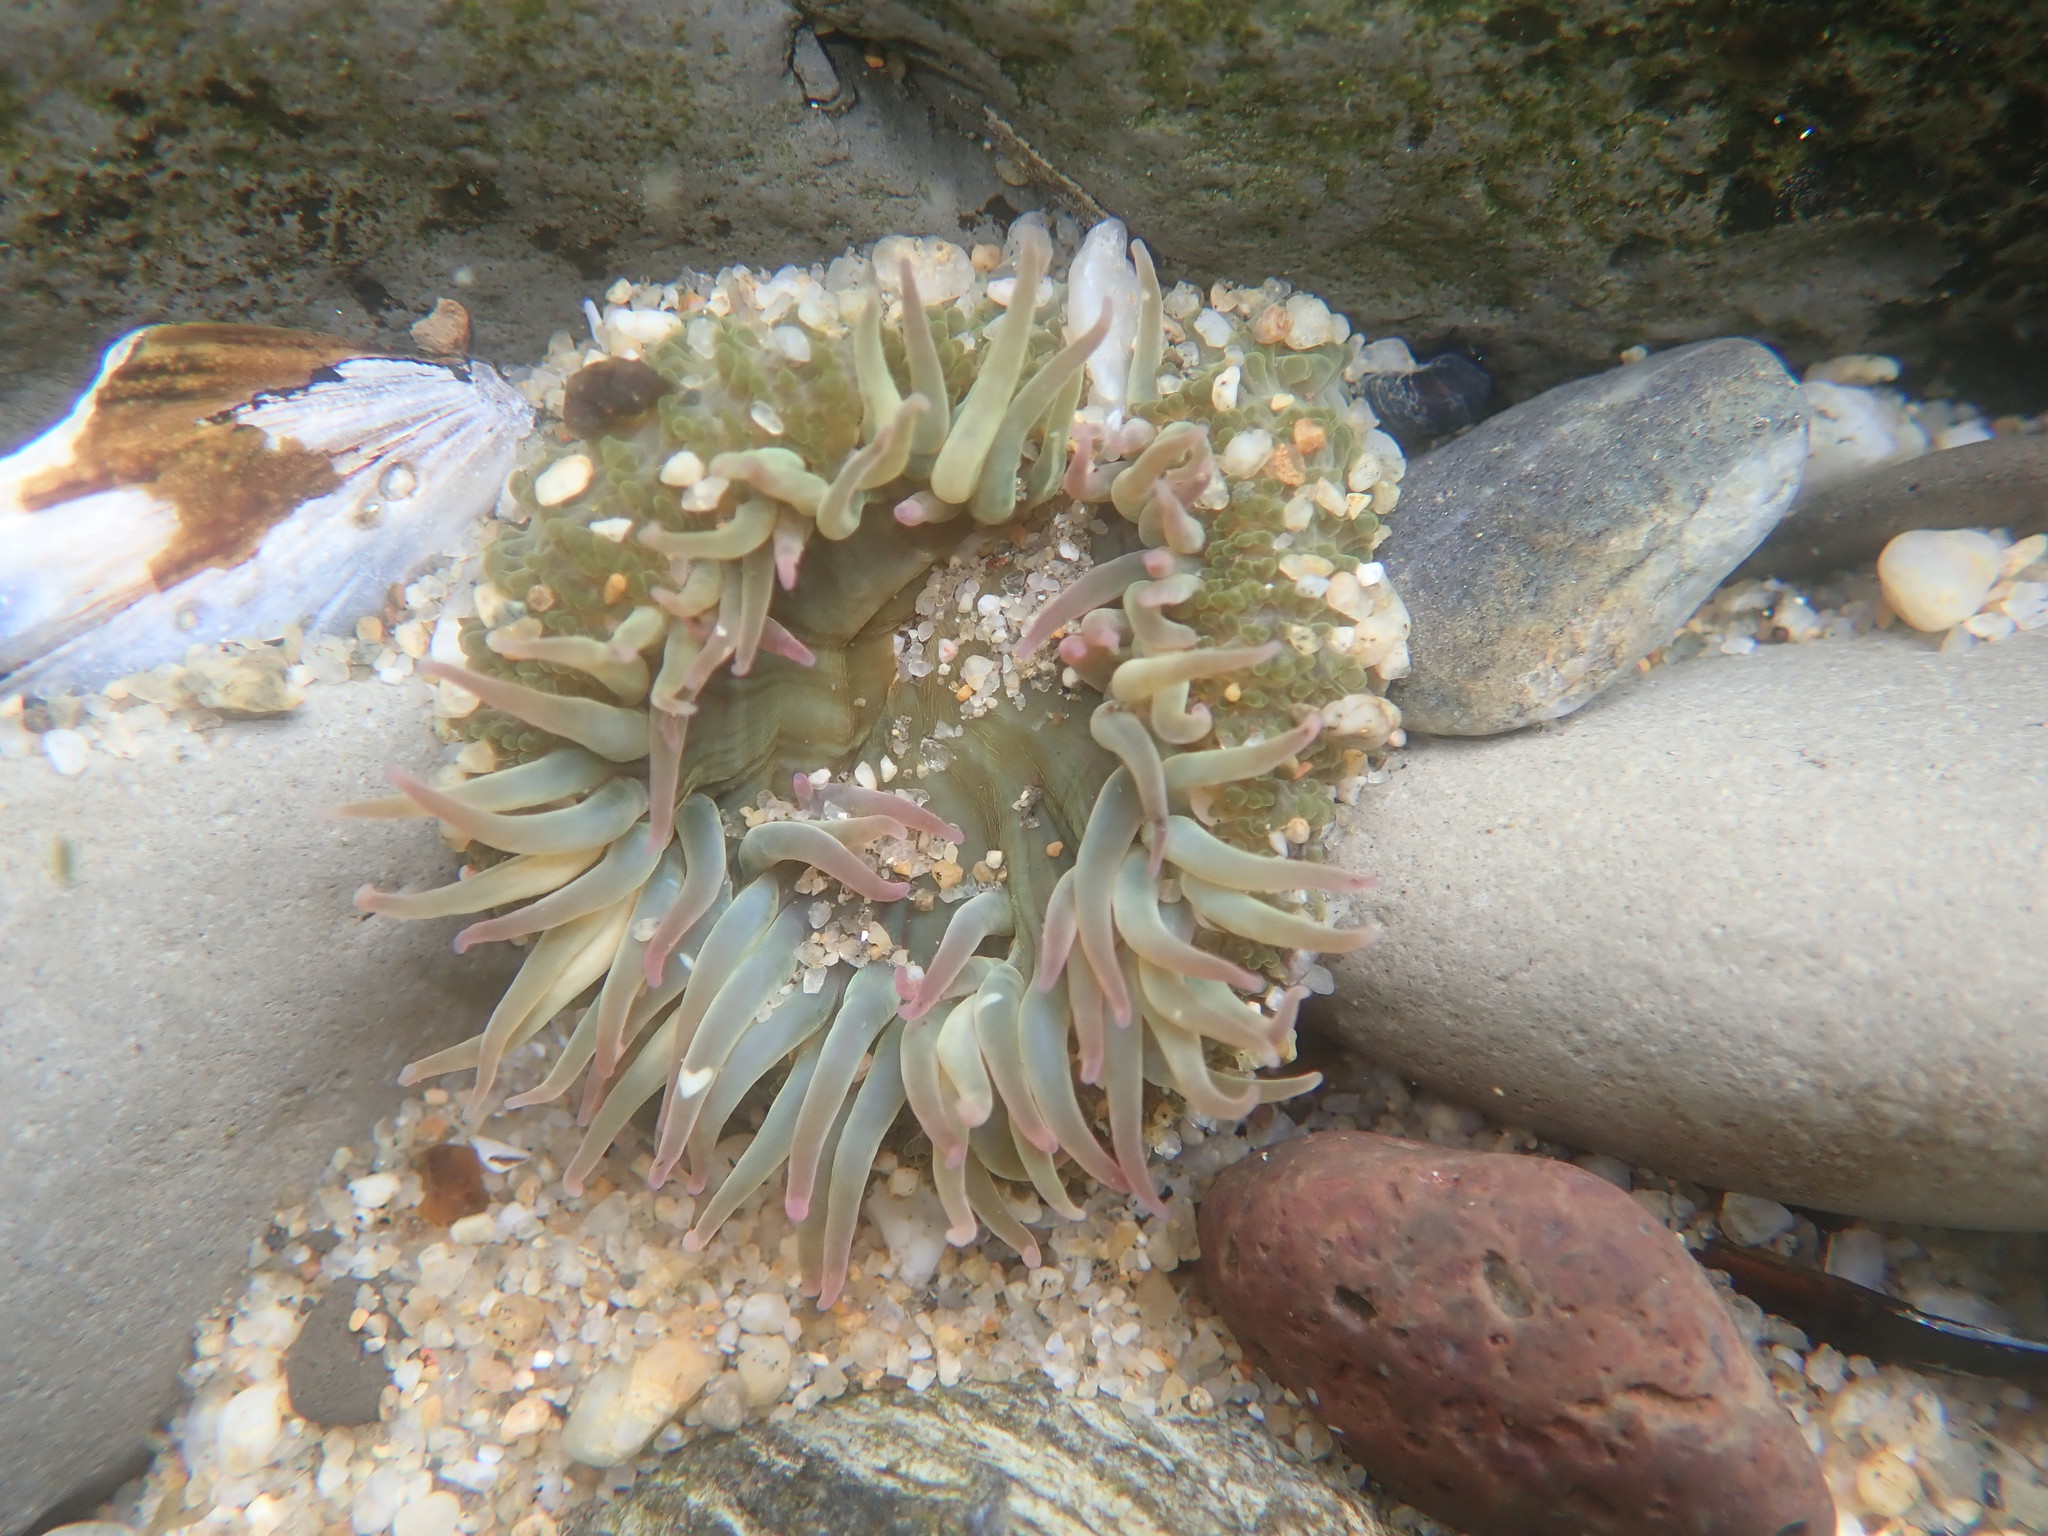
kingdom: Animalia
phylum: Cnidaria
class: Anthozoa
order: Actiniaria
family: Actiniidae
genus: Anthopleura
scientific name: Anthopleura sola
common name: Sun anemone
